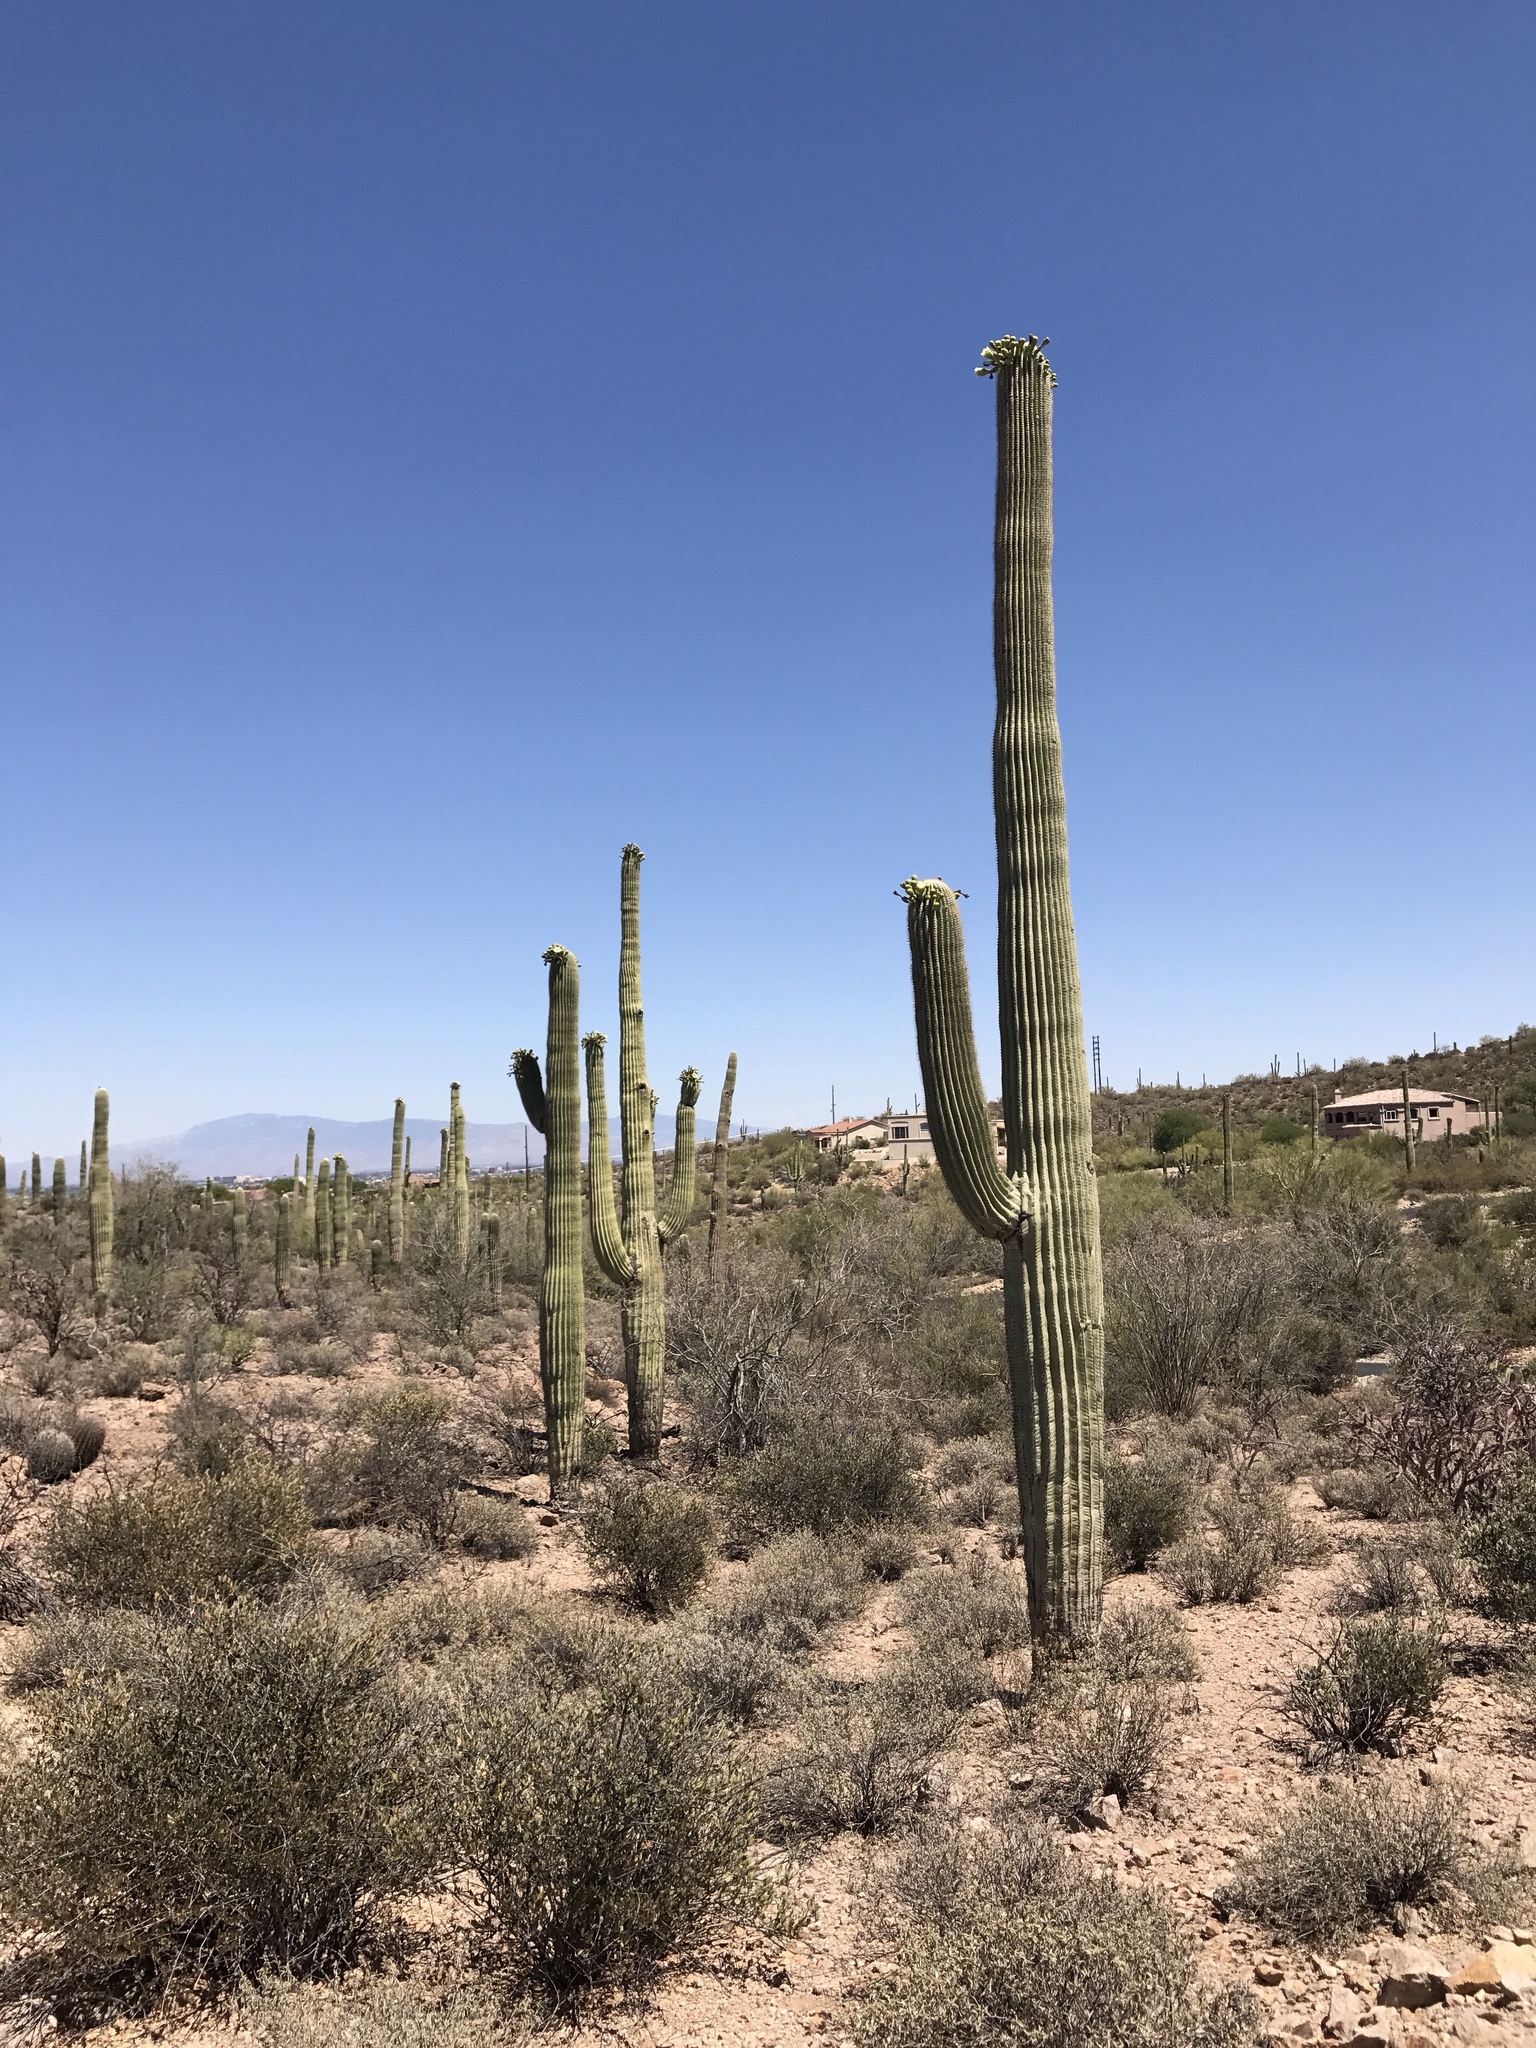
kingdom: Plantae
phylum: Tracheophyta
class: Magnoliopsida
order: Caryophyllales
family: Cactaceae
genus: Carnegiea
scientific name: Carnegiea gigantea
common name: Saguaro
